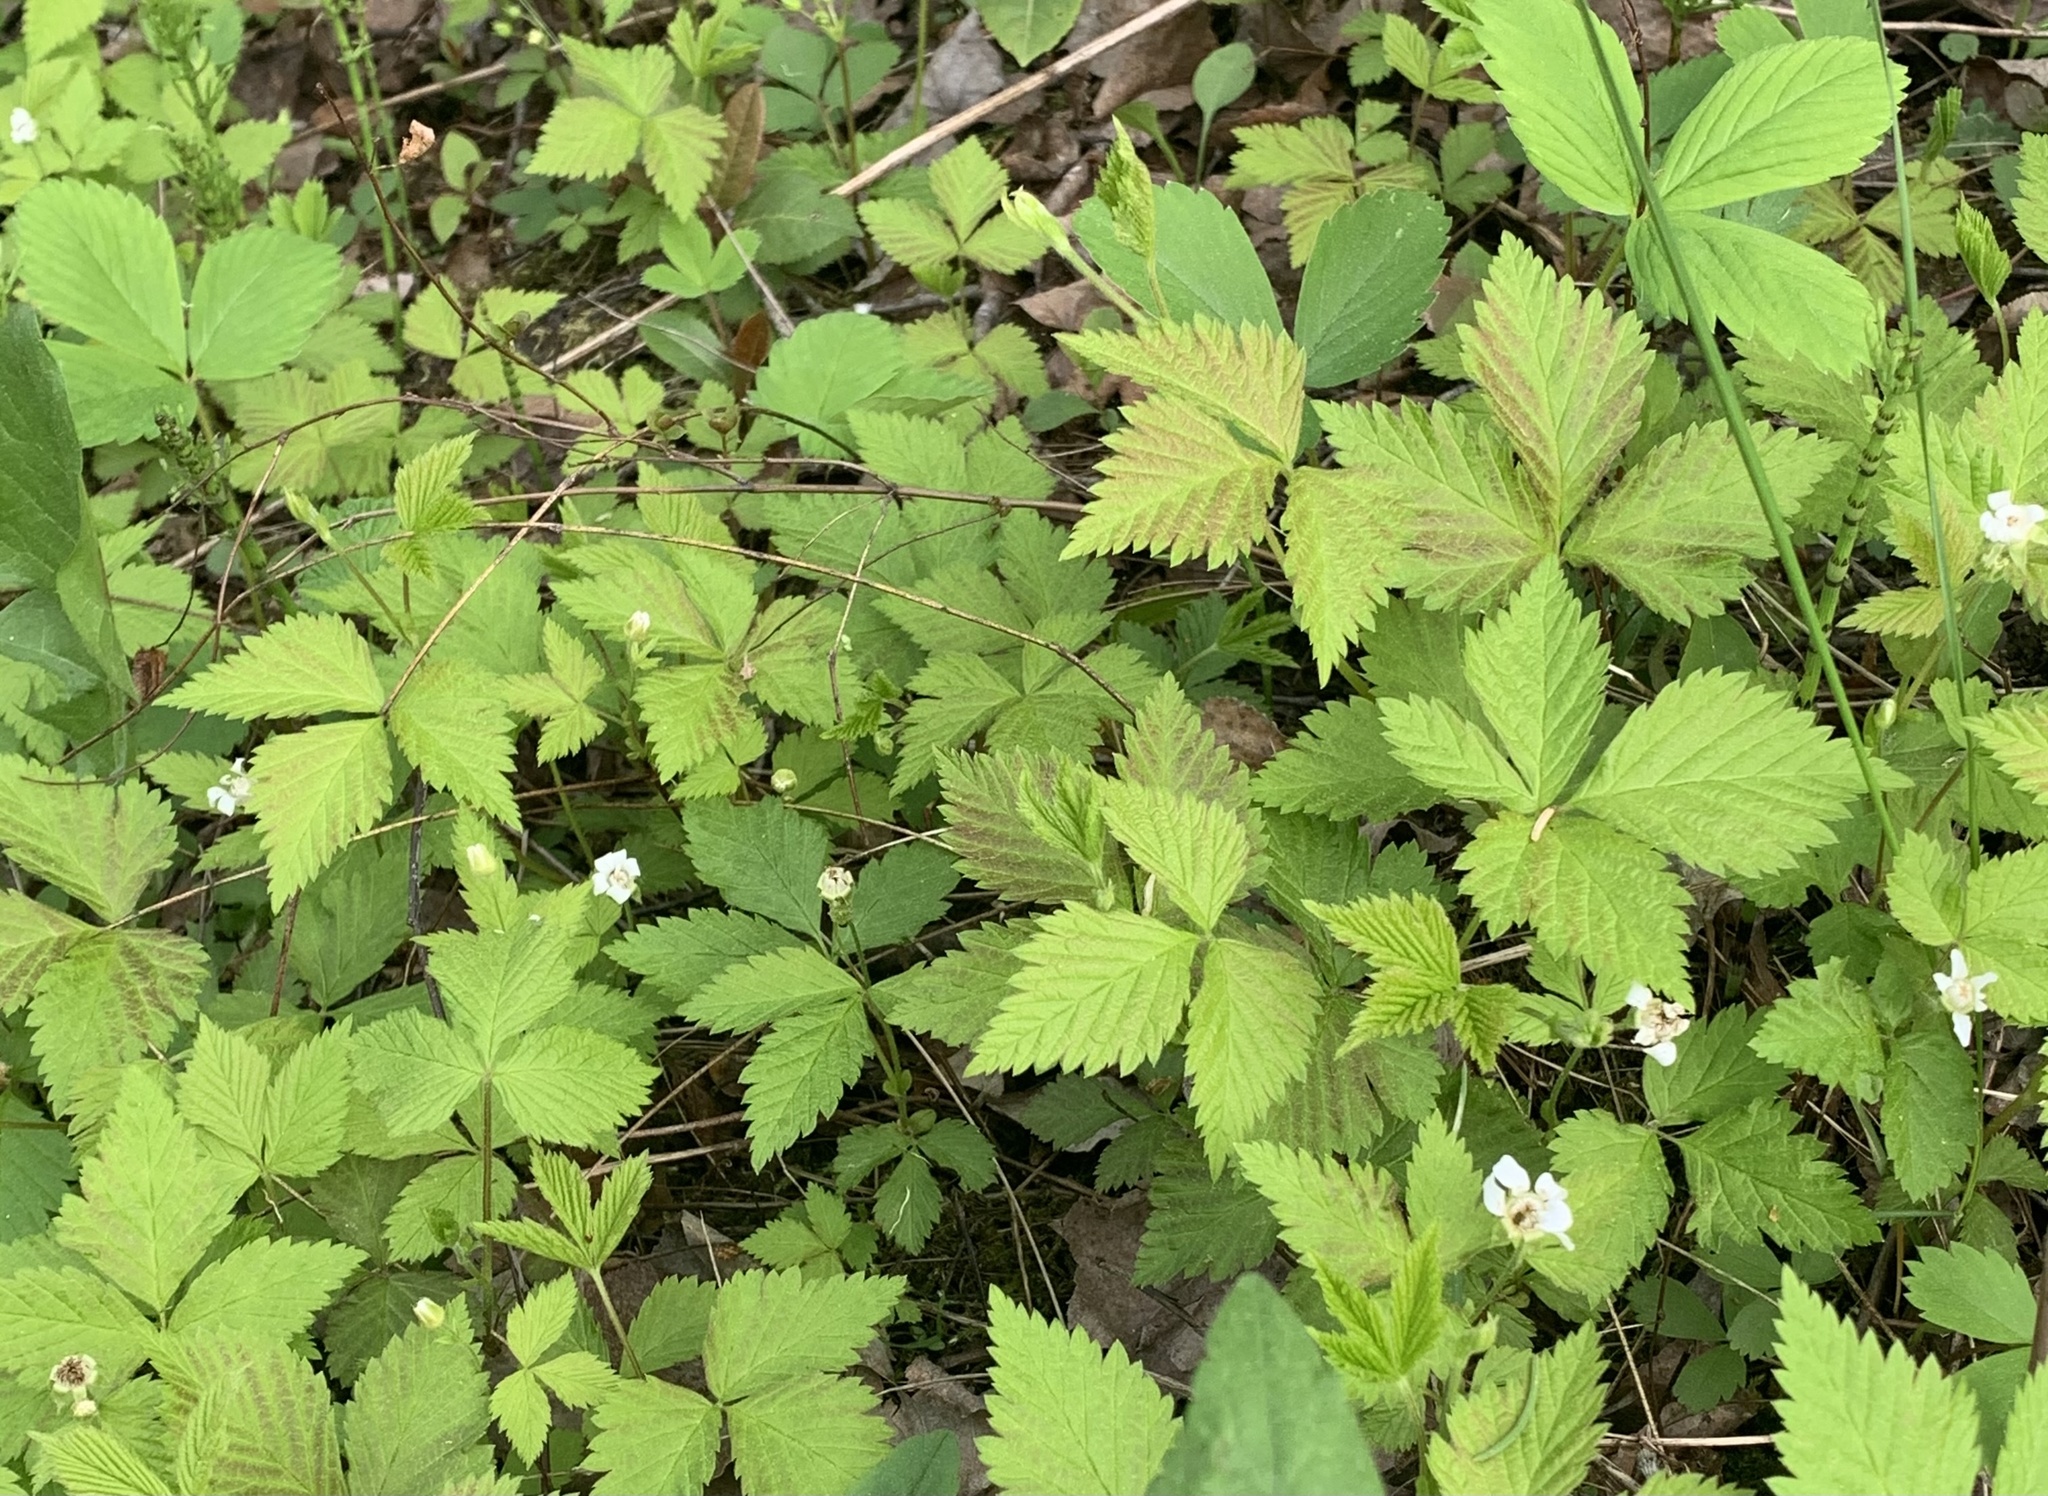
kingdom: Plantae
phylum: Tracheophyta
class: Magnoliopsida
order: Rosales
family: Rosaceae
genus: Rubus
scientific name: Rubus pubescens
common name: Dwarf raspberry
